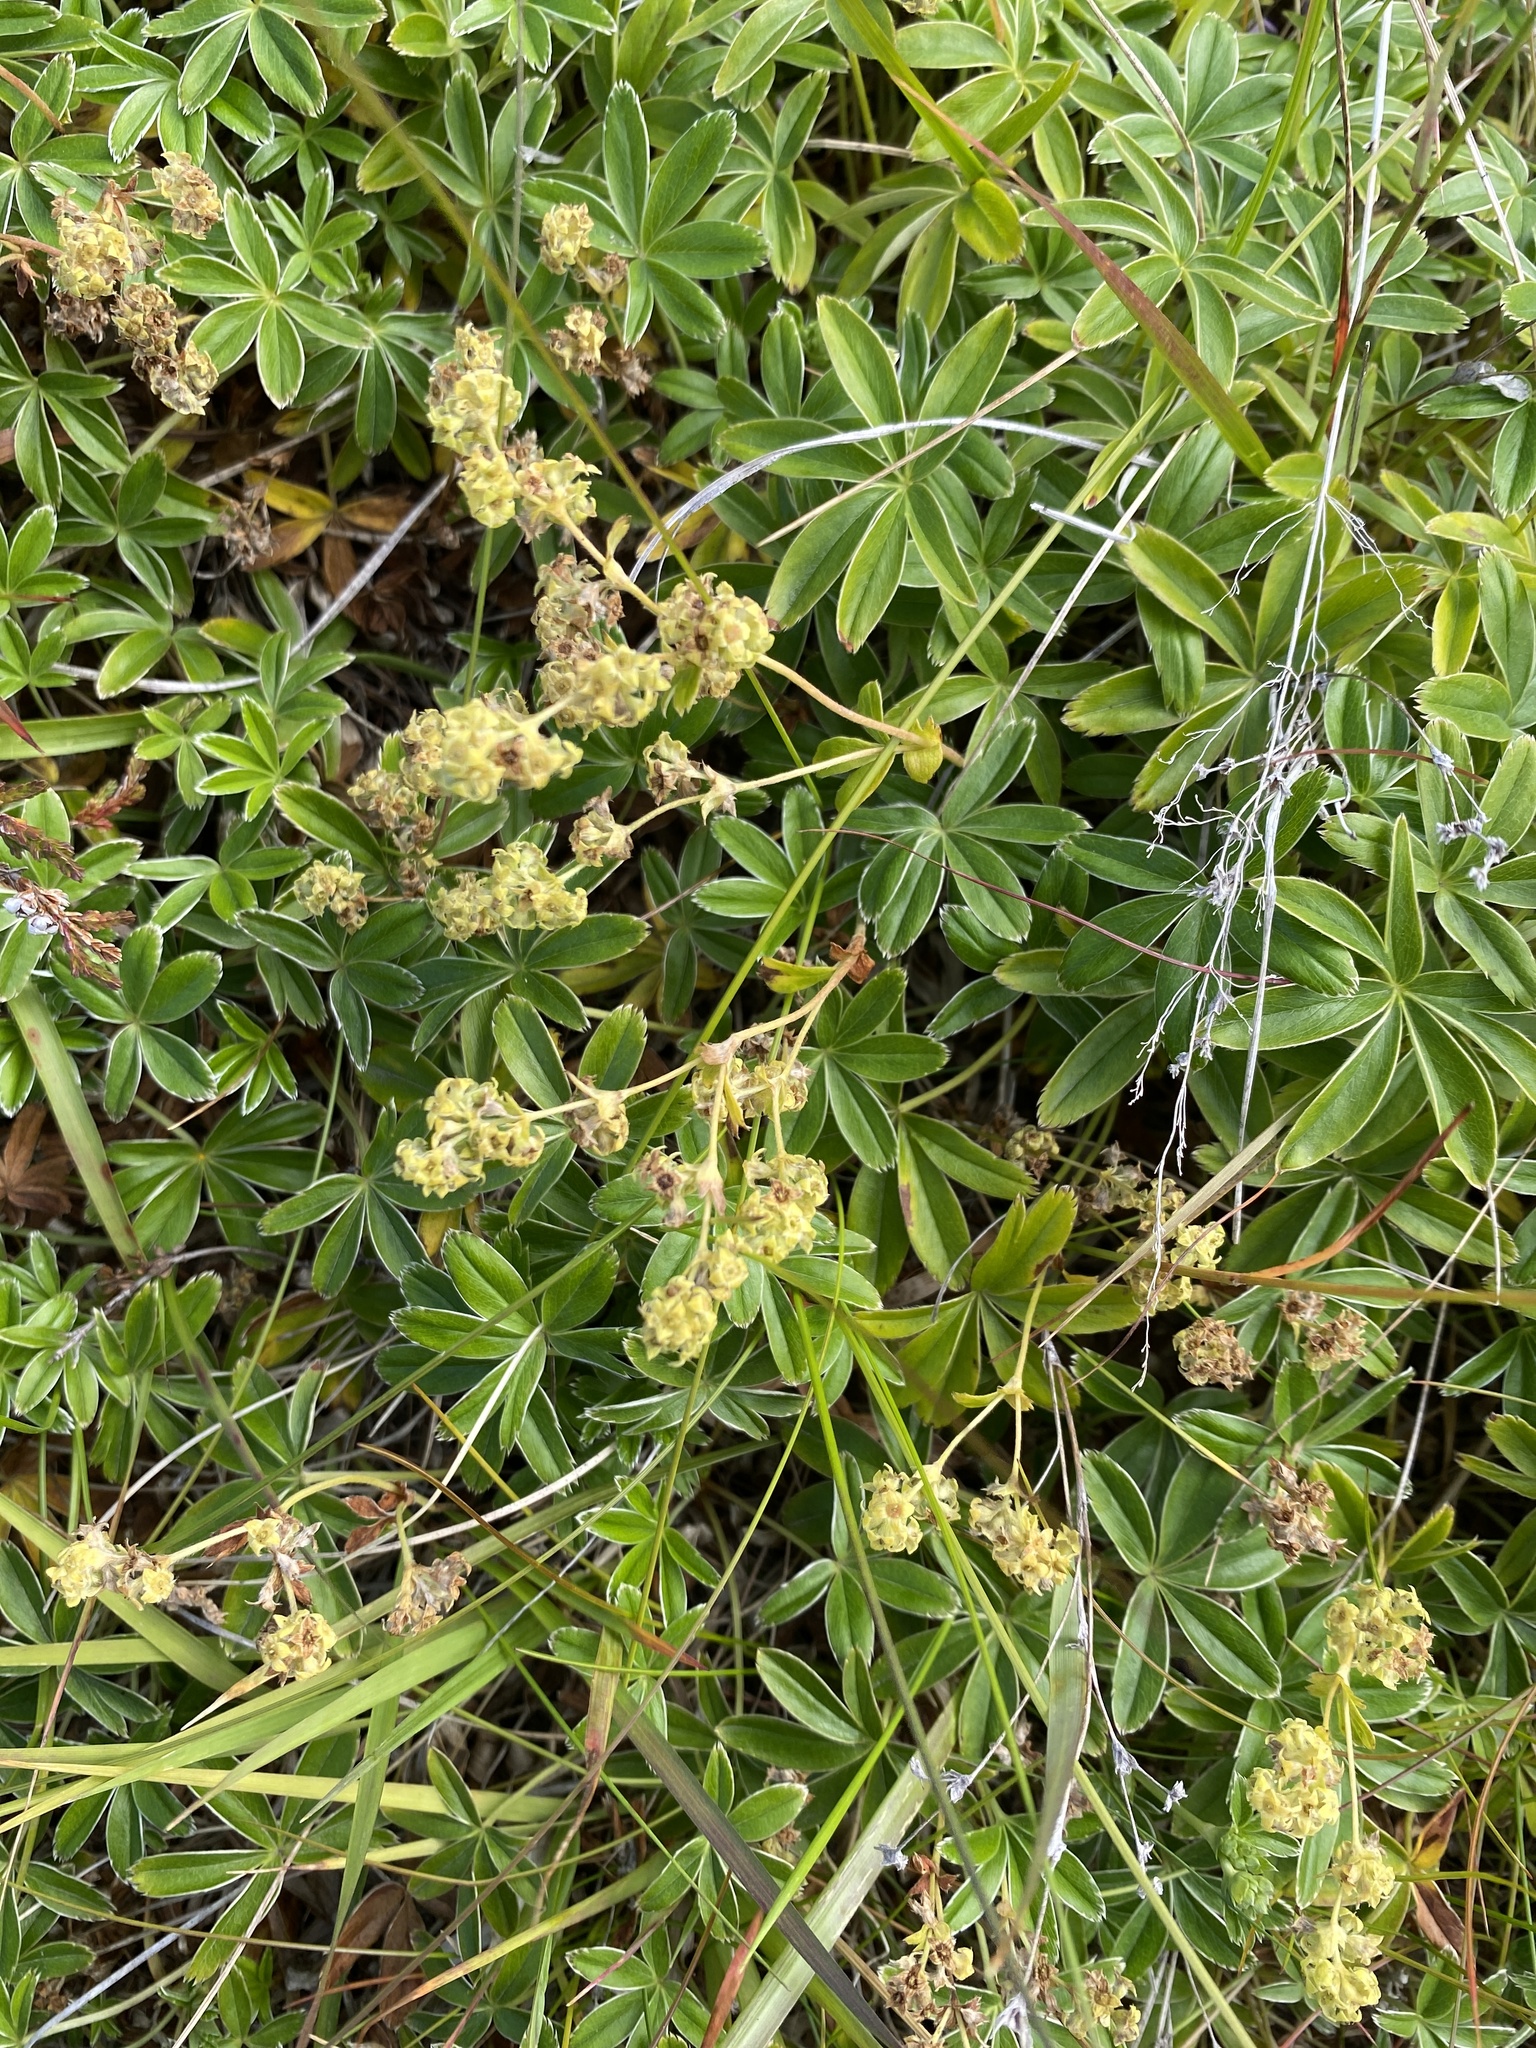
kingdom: Plantae
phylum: Tracheophyta
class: Magnoliopsida
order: Rosales
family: Rosaceae
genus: Alchemilla
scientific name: Alchemilla alpina
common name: Alpine lady's-mantle
